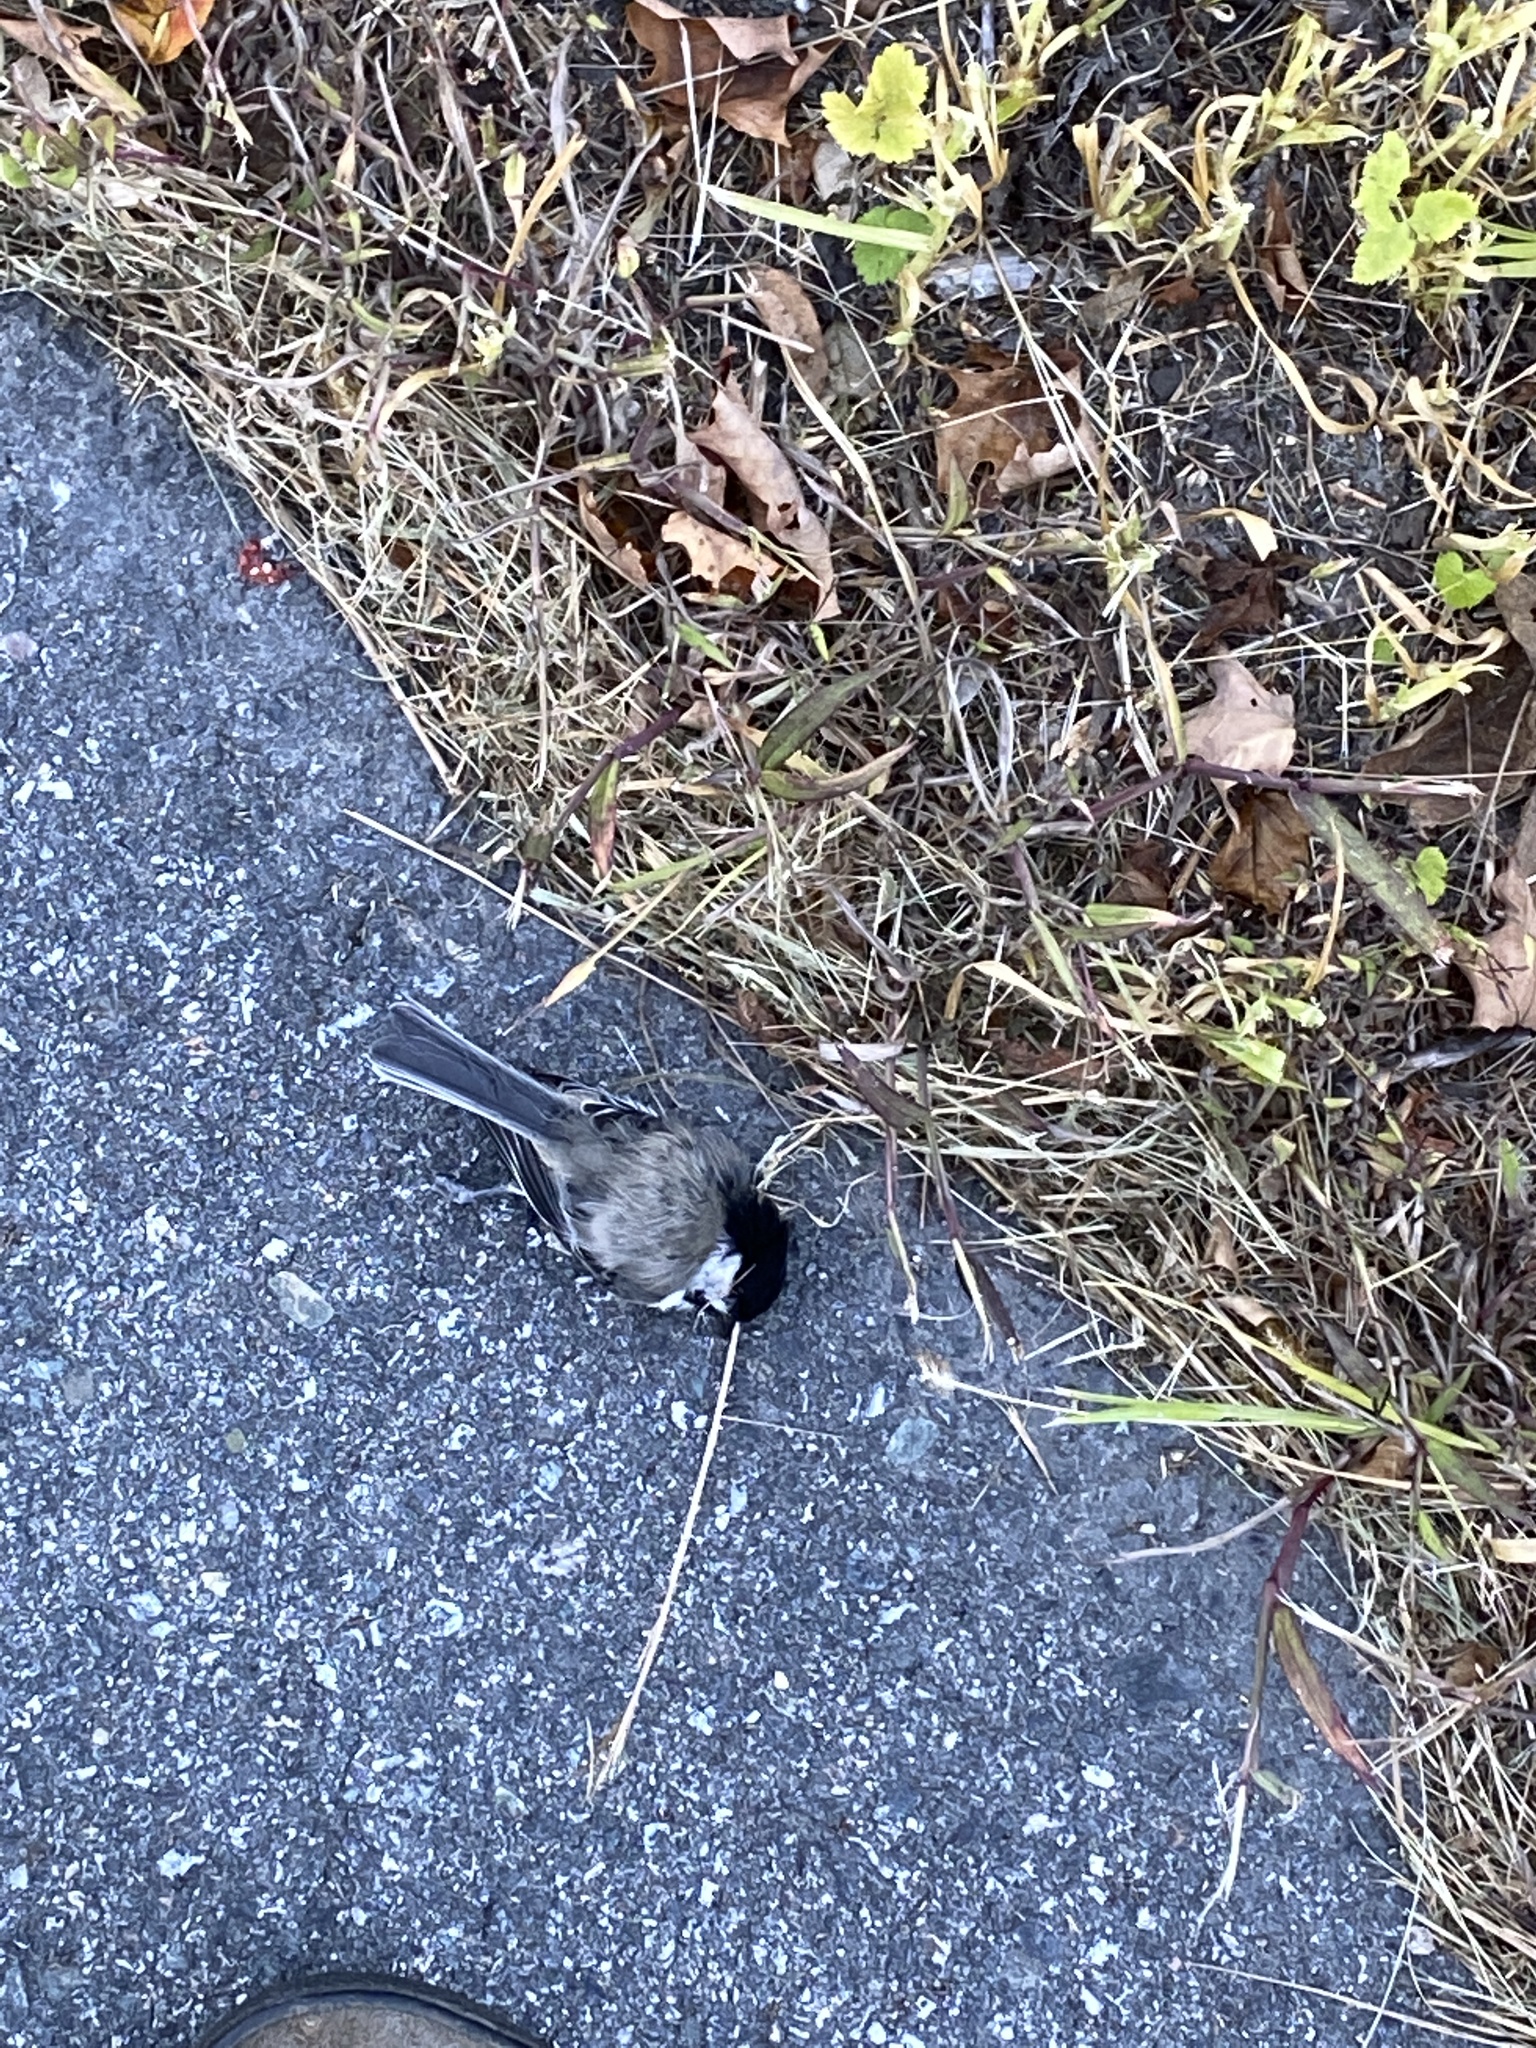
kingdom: Animalia
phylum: Chordata
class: Aves
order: Passeriformes
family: Paridae
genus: Poecile
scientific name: Poecile atricapillus
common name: Black-capped chickadee
